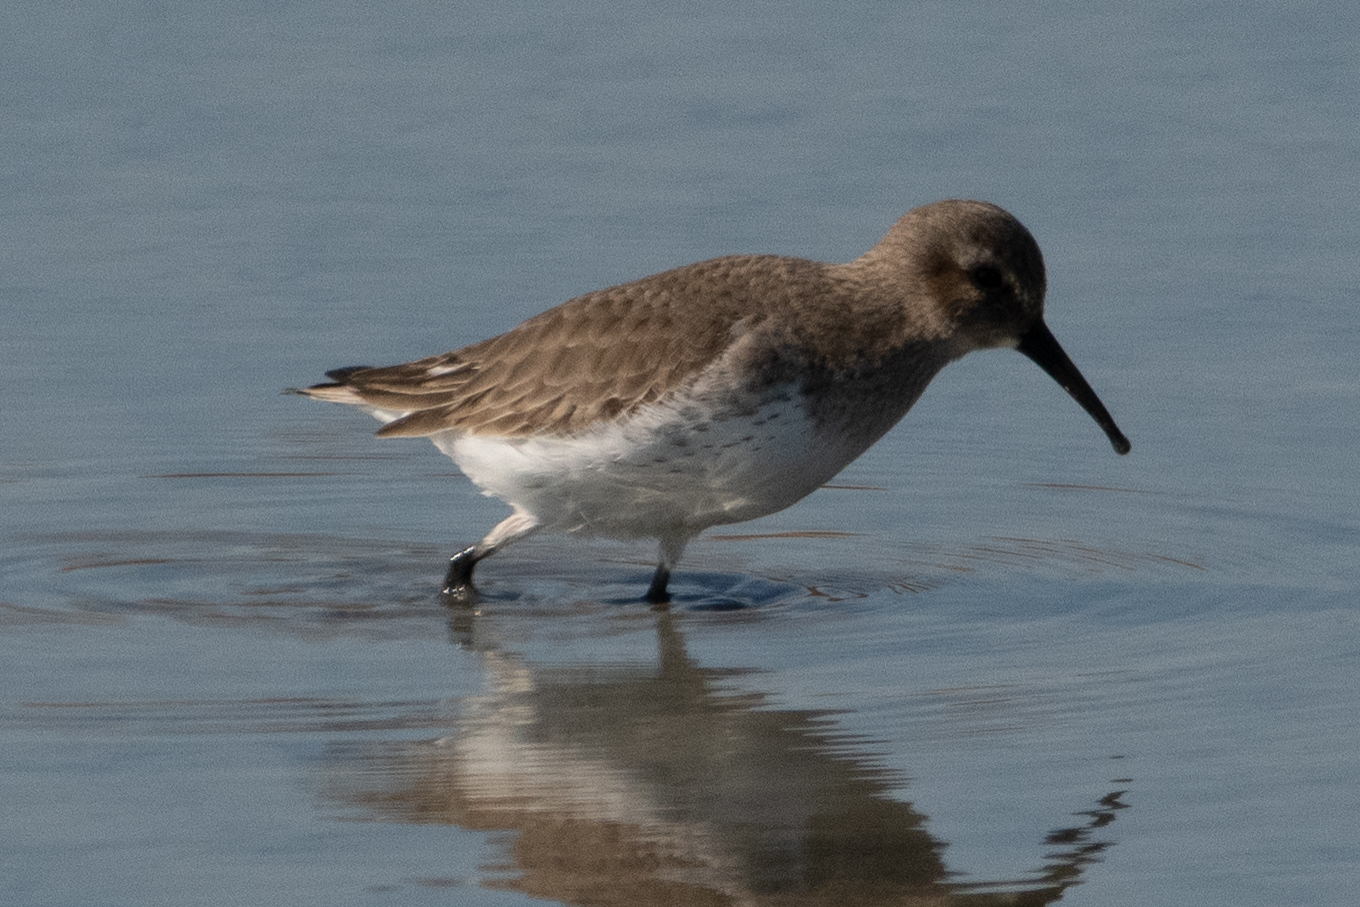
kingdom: Animalia
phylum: Chordata
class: Aves
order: Charadriiformes
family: Scolopacidae
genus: Calidris
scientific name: Calidris alpina
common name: Dunlin
